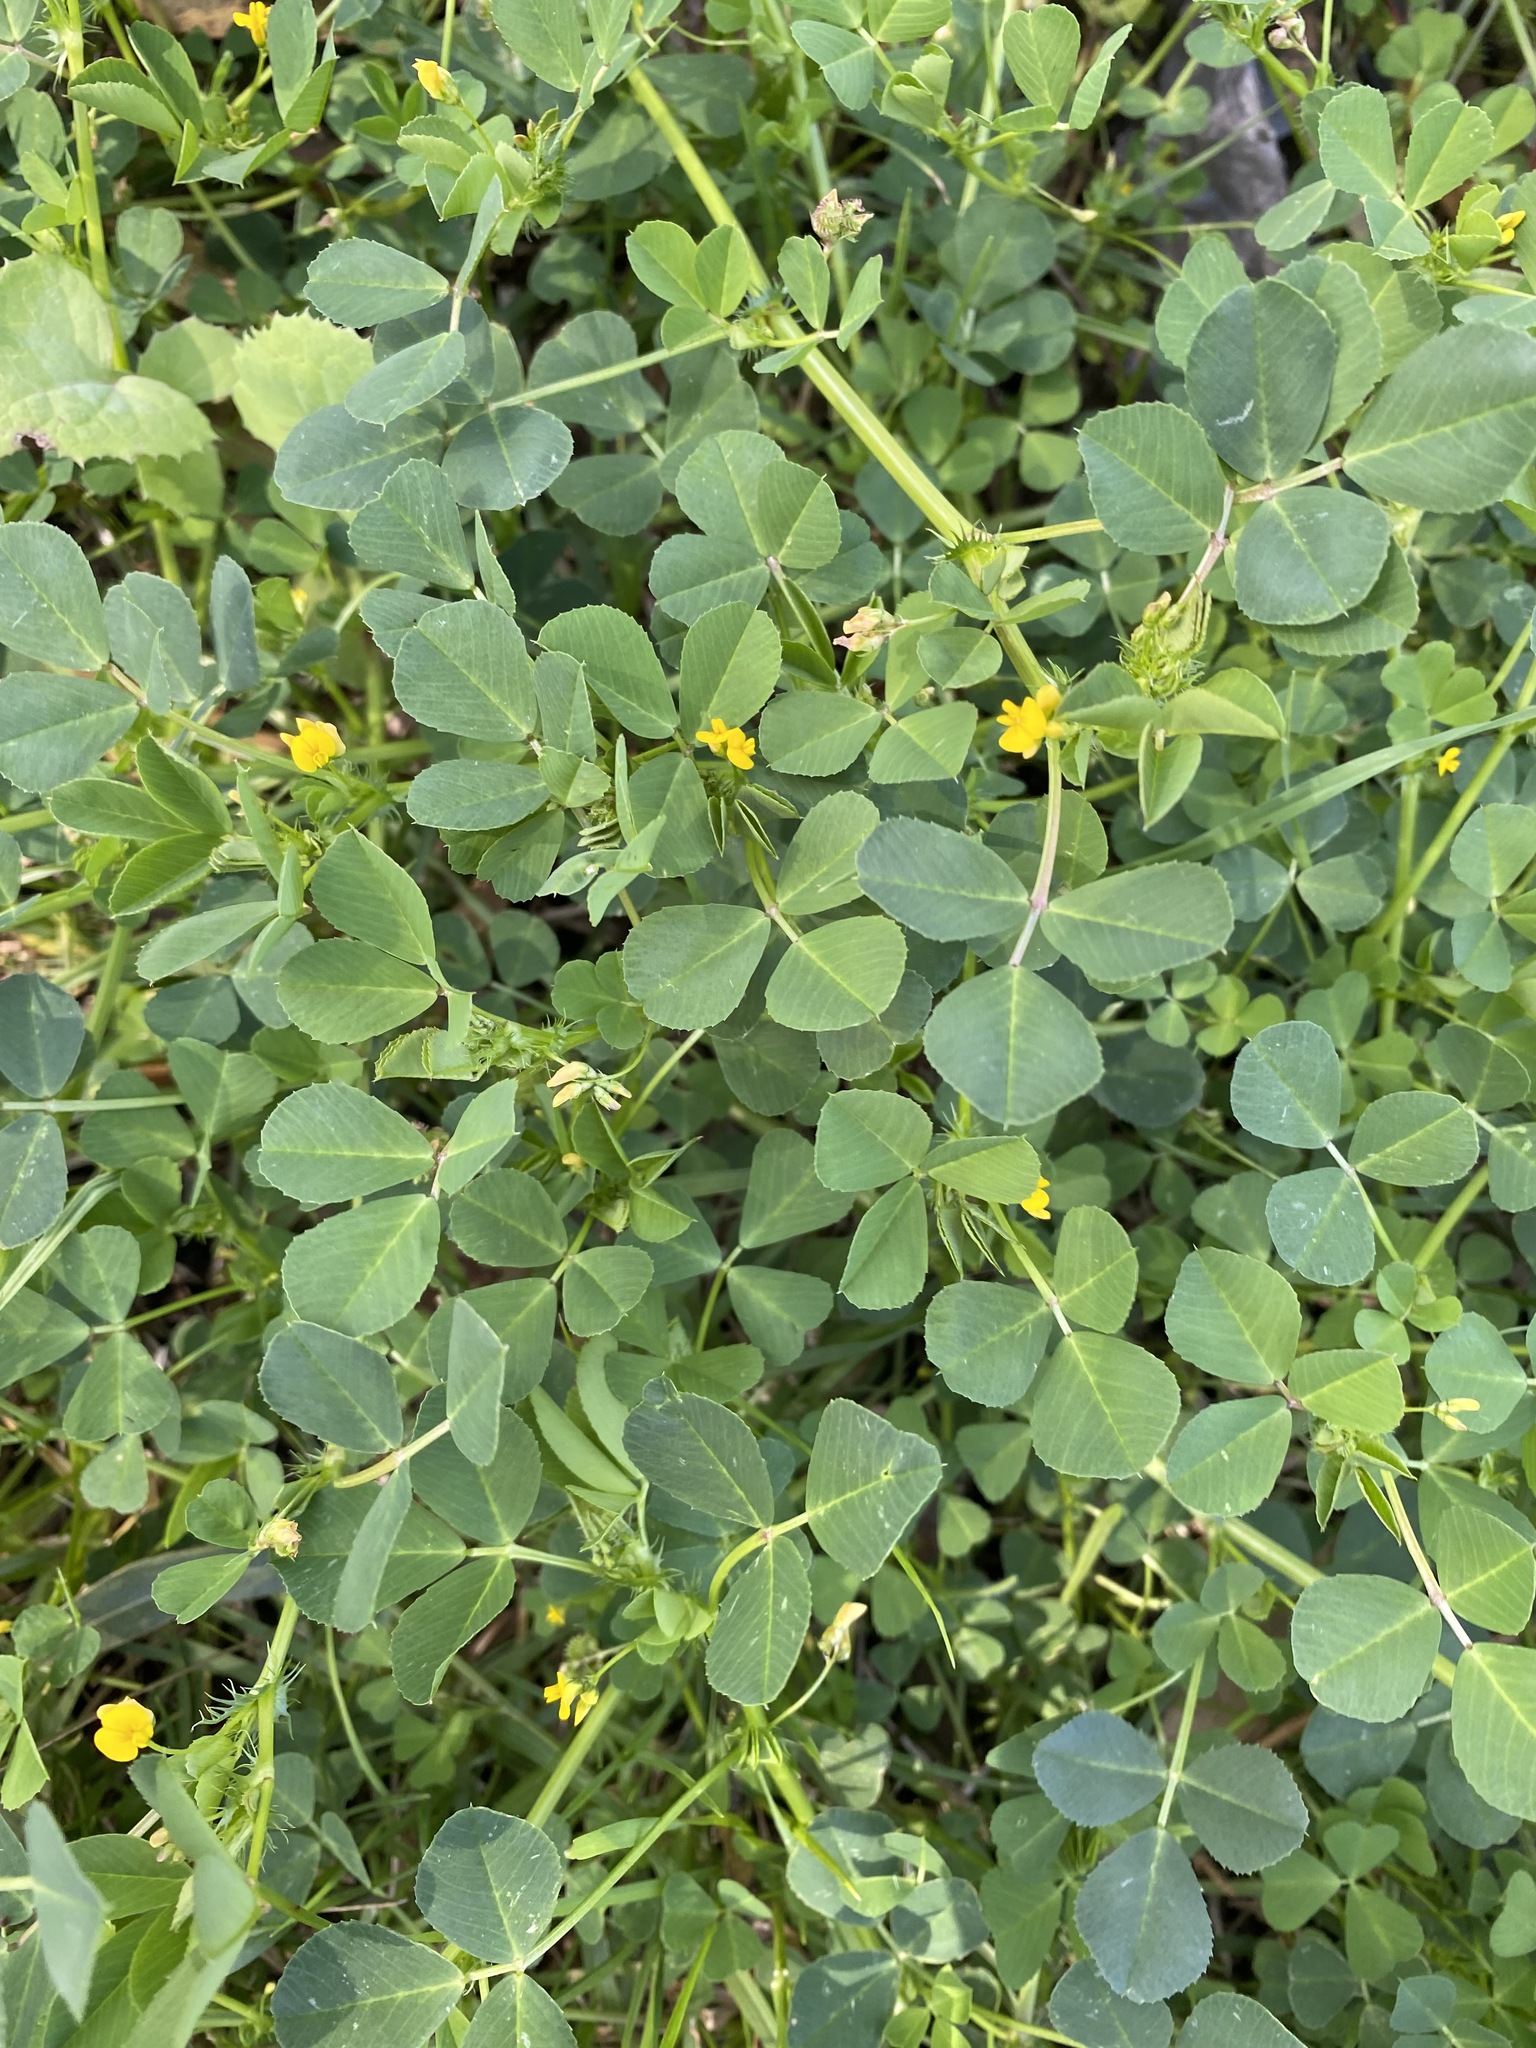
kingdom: Plantae
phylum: Tracheophyta
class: Magnoliopsida
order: Fabales
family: Fabaceae
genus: Medicago
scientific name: Medicago polymorpha
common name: Burclover
